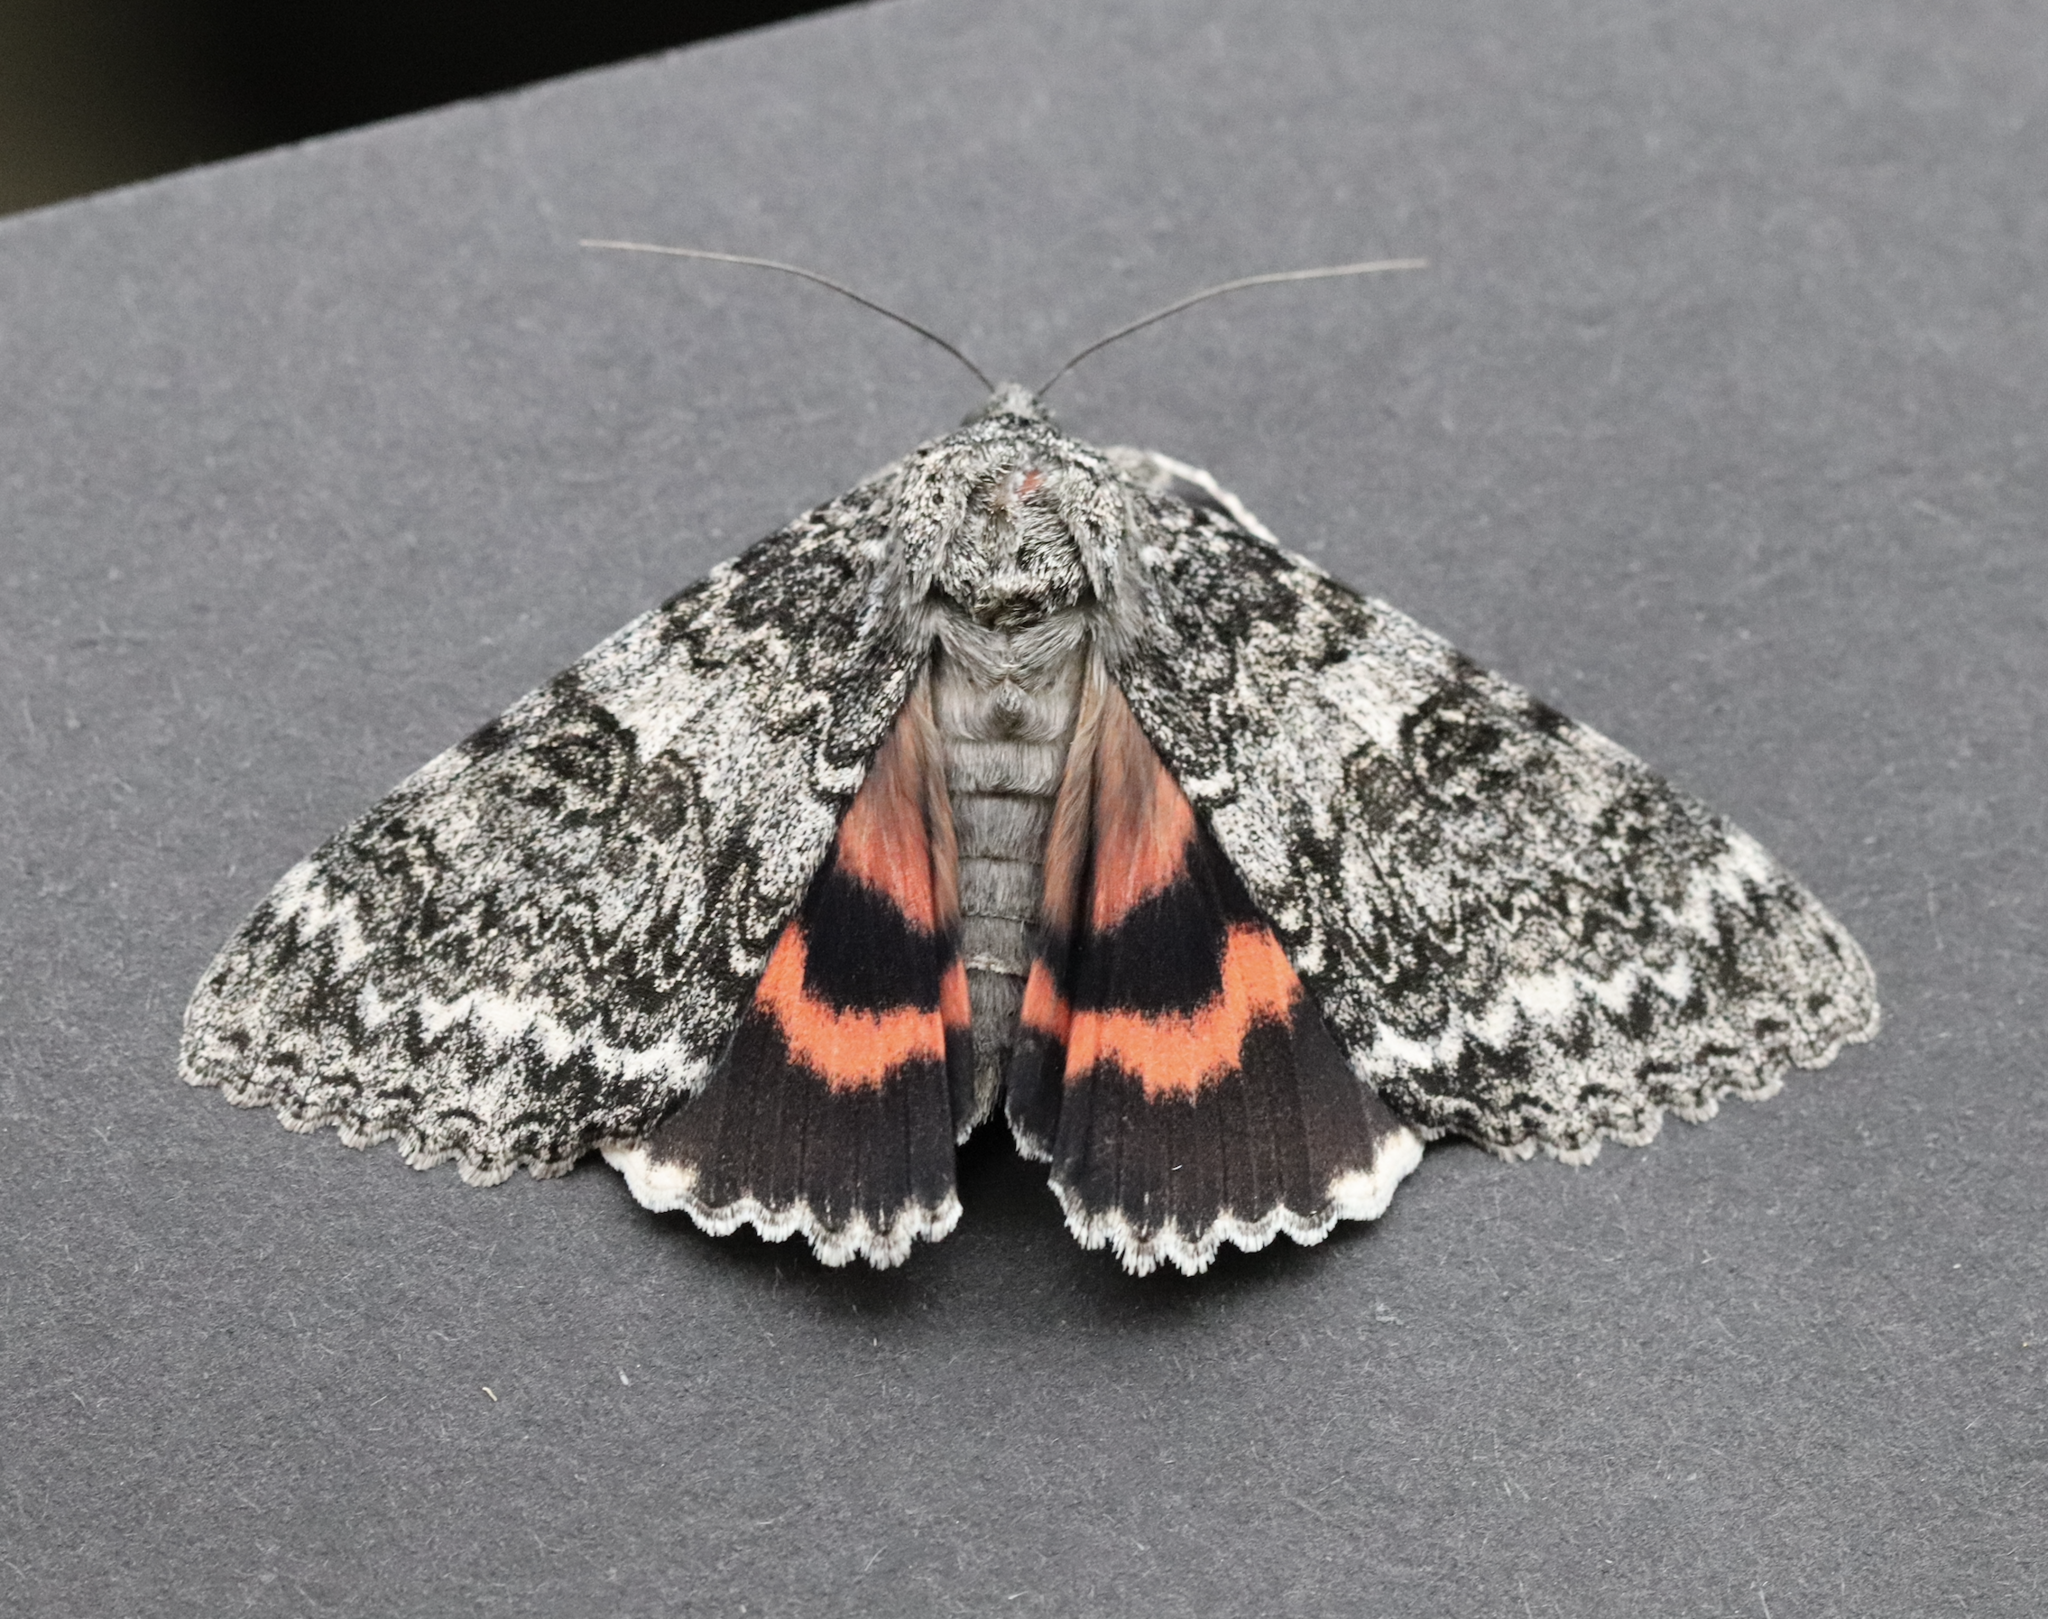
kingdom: Animalia
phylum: Arthropoda
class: Insecta
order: Lepidoptera
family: Erebidae
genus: Catocala
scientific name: Catocala unijuga
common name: Once-married underwing
